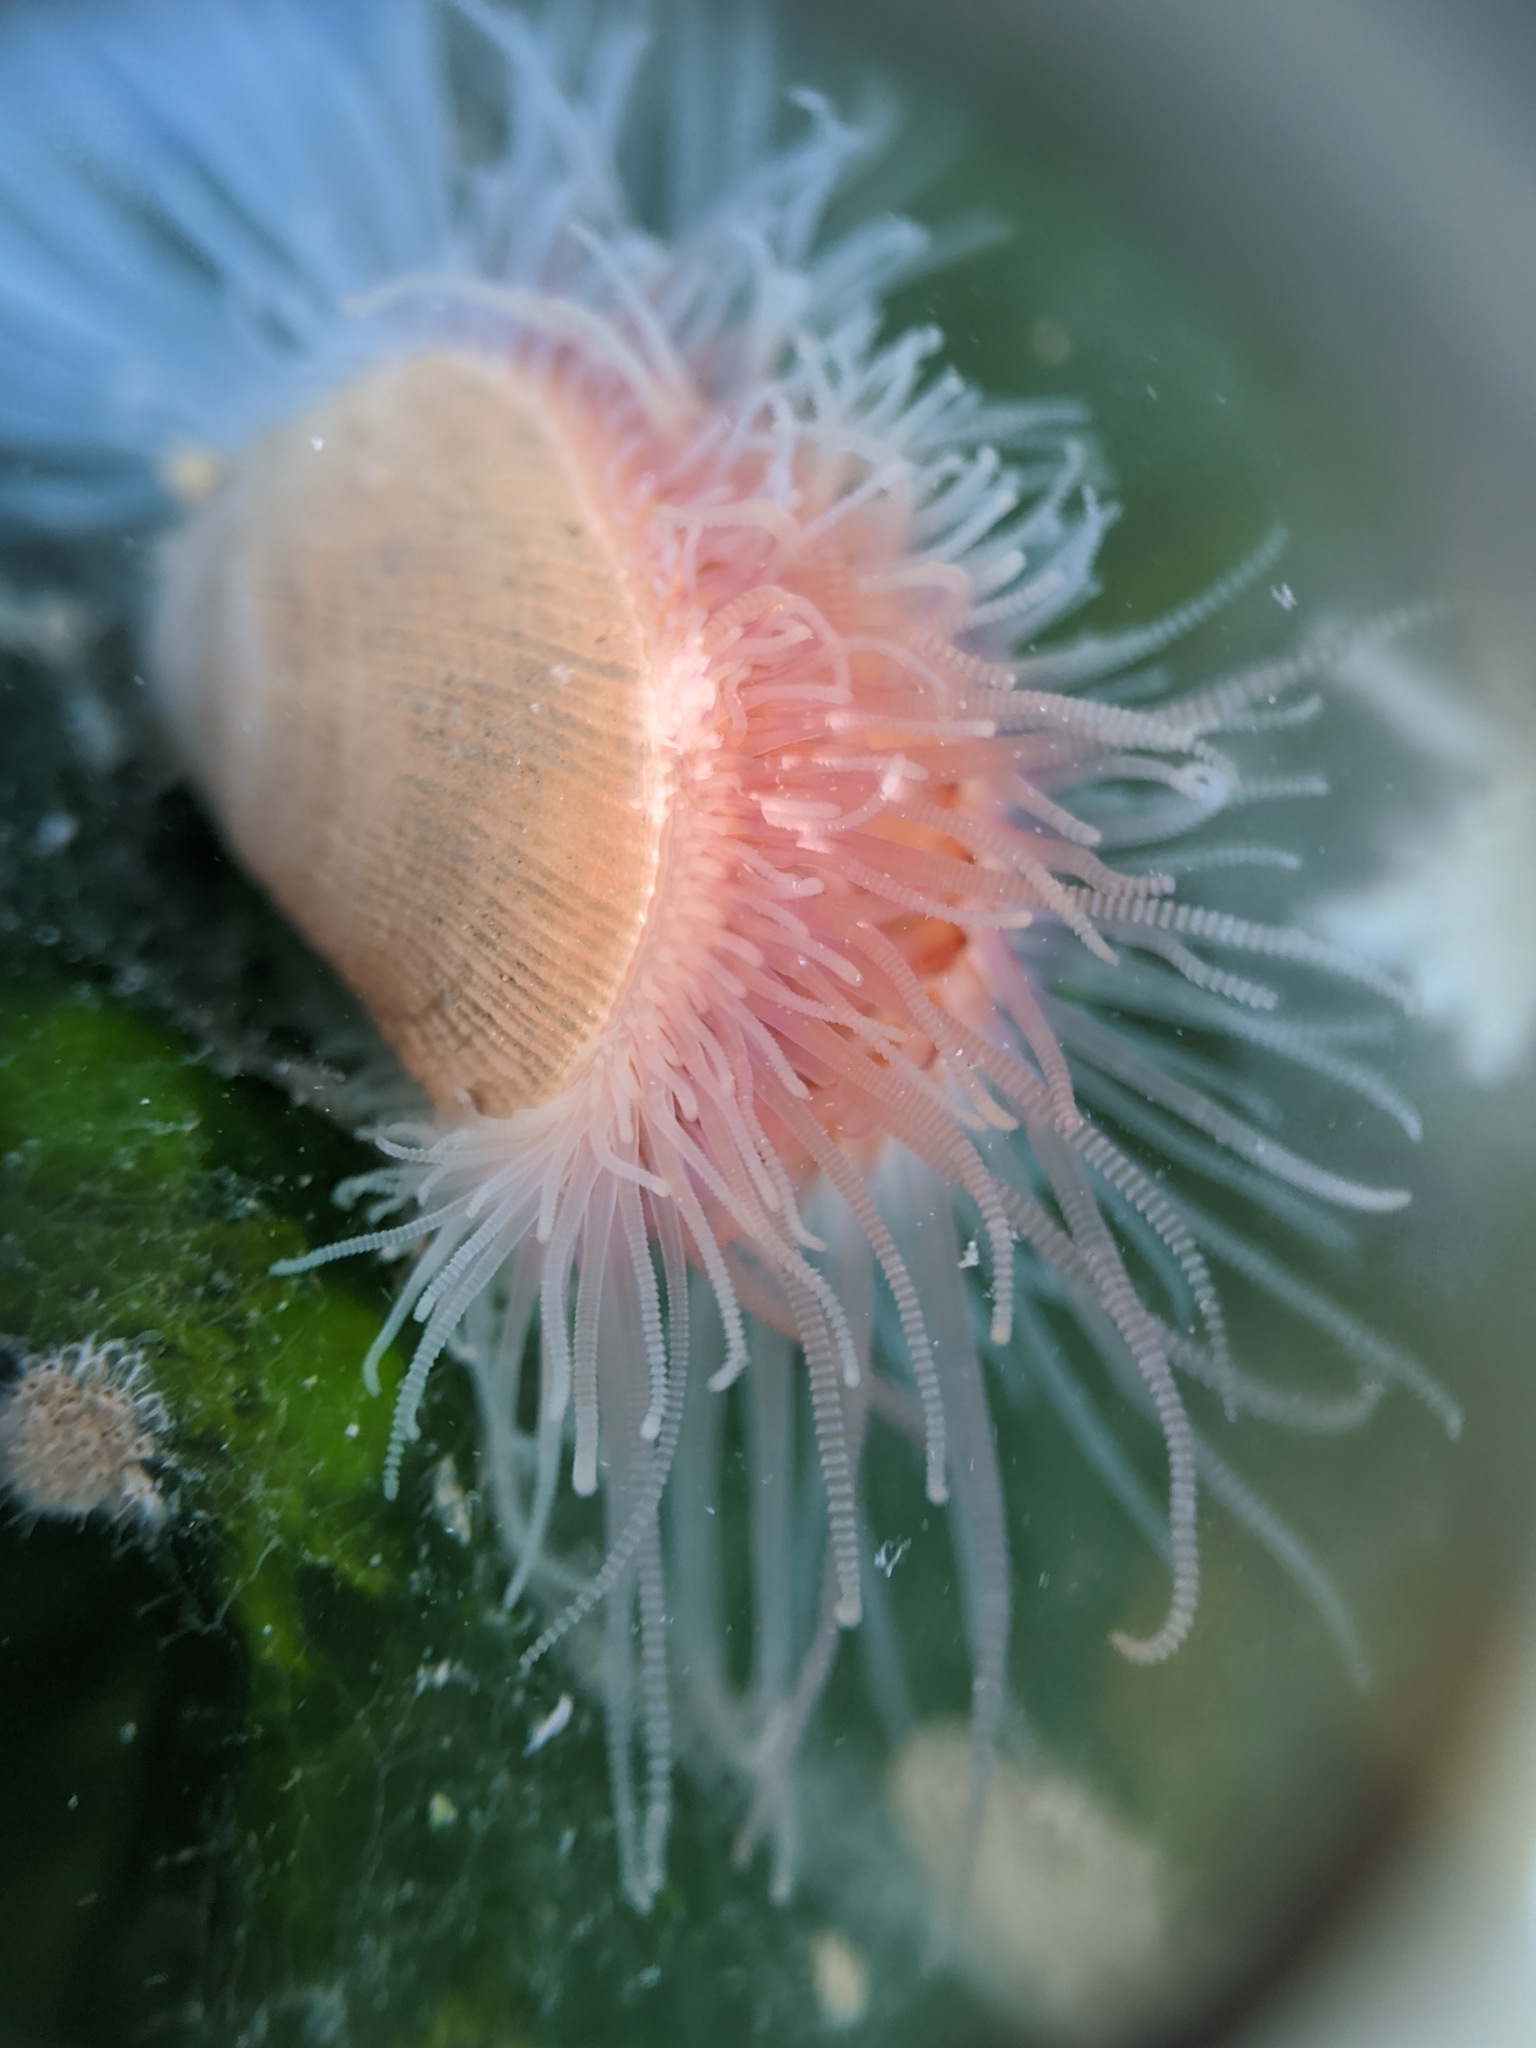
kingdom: Animalia
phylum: Mollusca
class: Bivalvia
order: Limida
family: Limidae
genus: Limaria
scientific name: Limaria hemphilli
